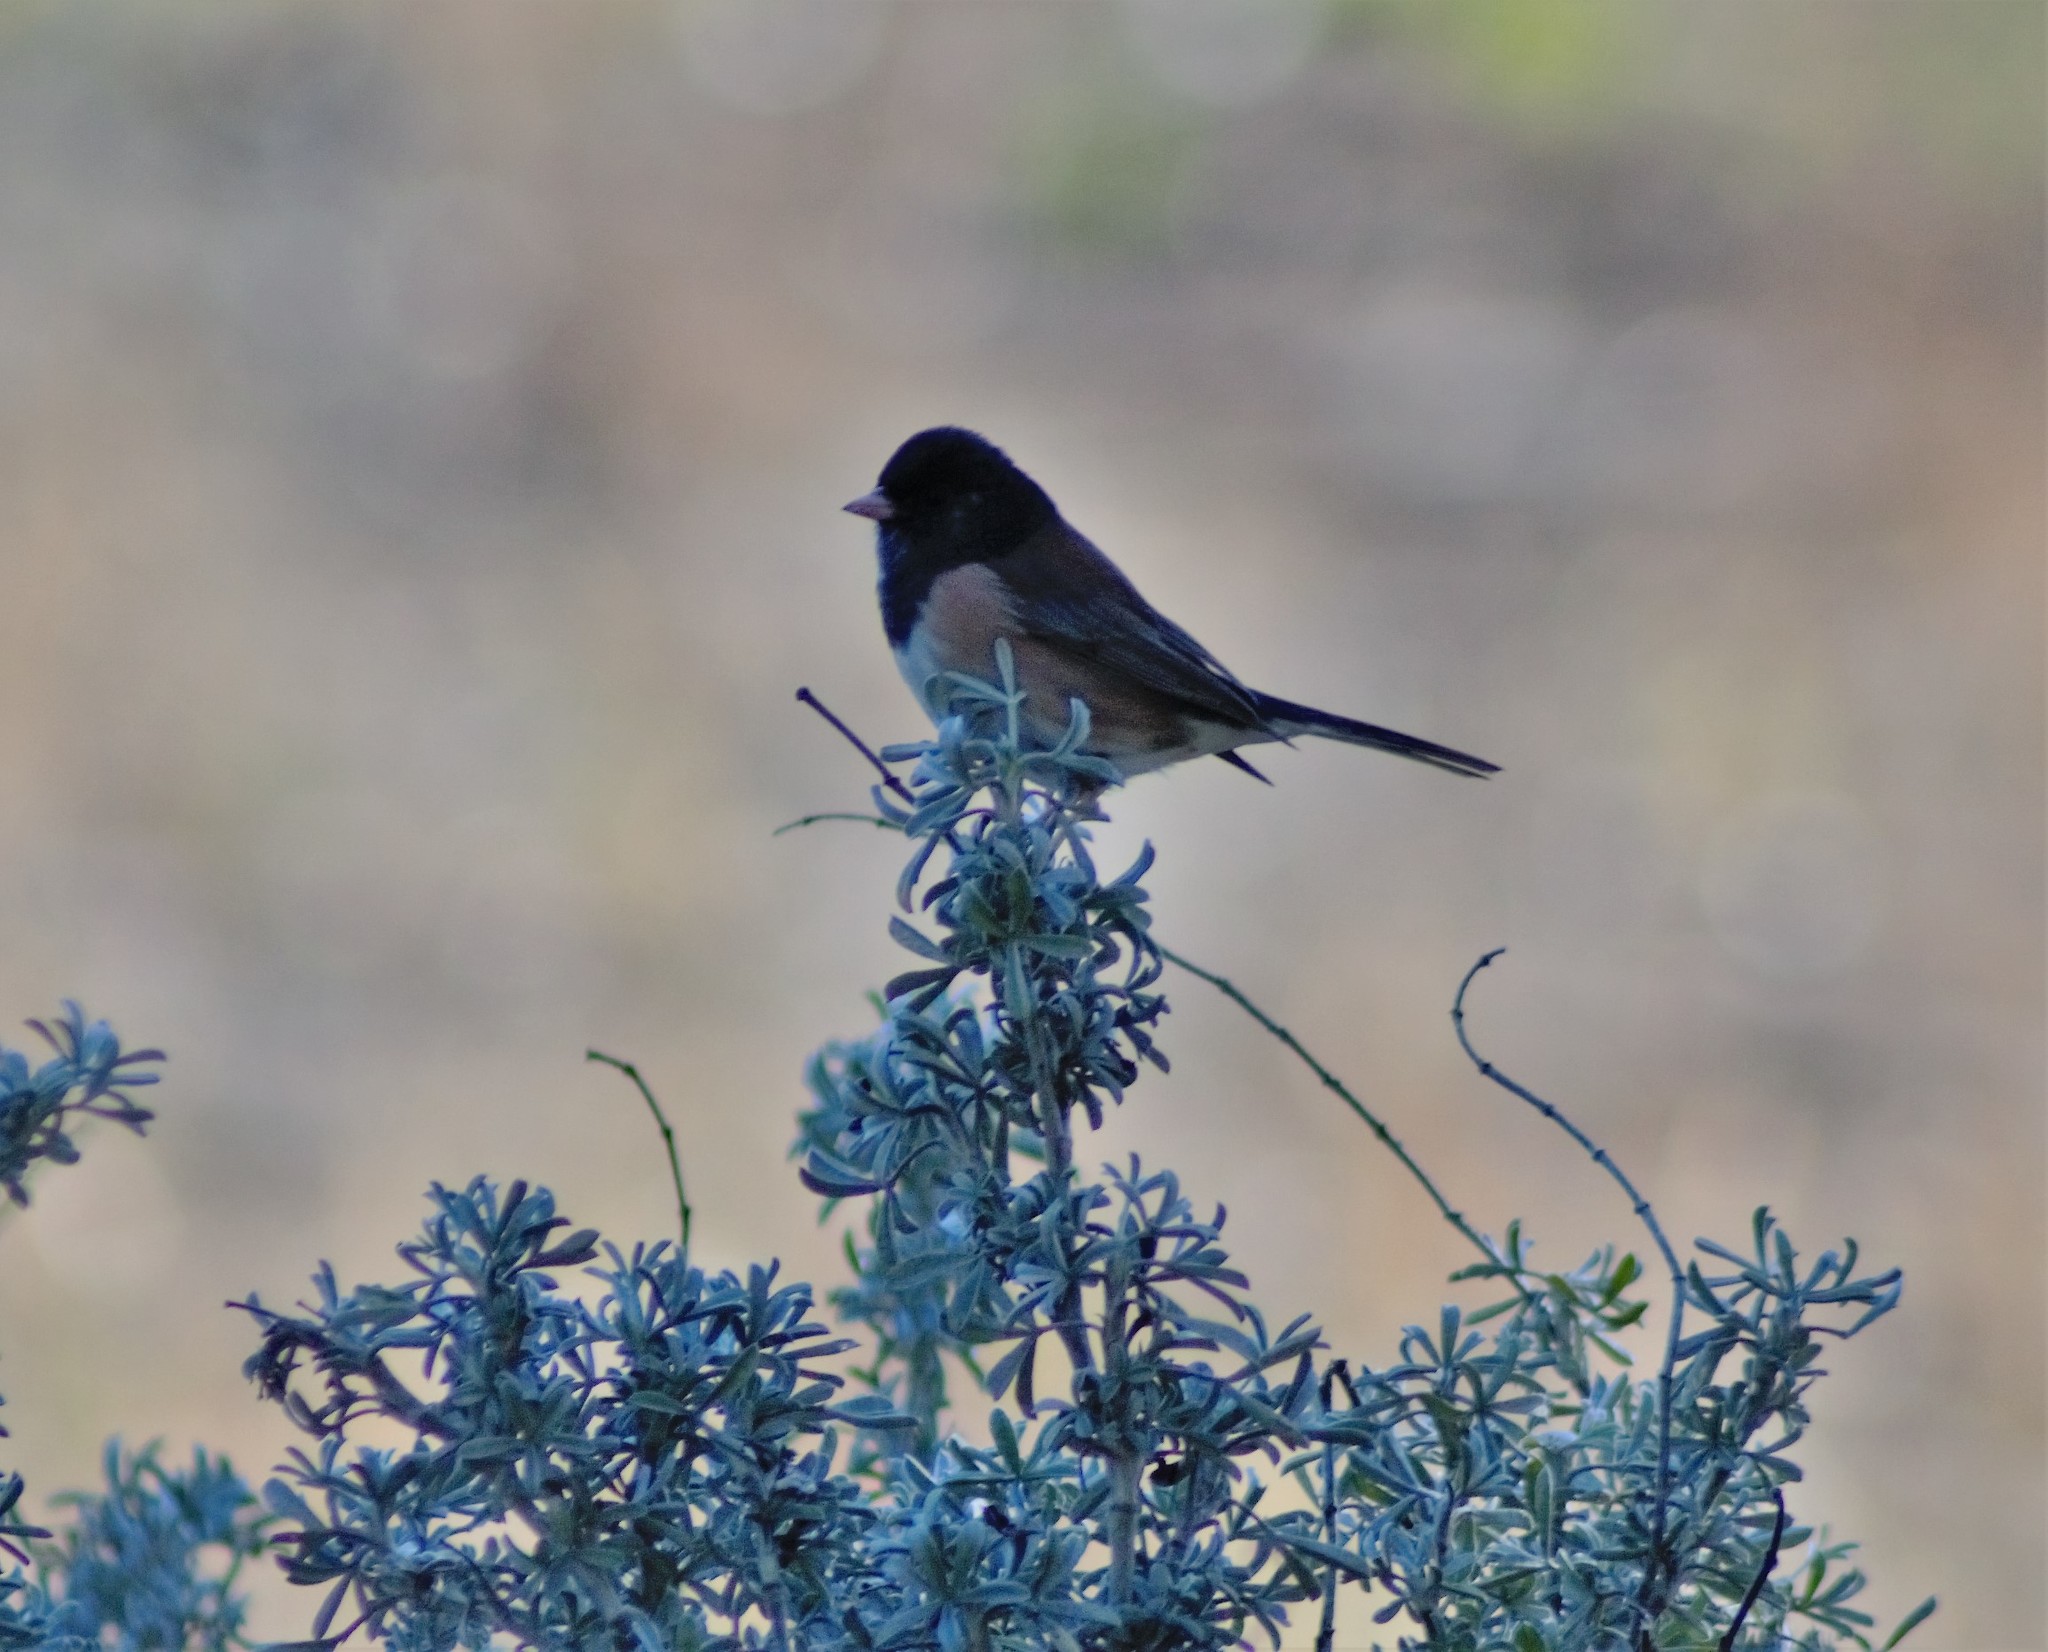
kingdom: Animalia
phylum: Chordata
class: Aves
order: Passeriformes
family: Passerellidae
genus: Junco
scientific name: Junco hyemalis
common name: Dark-eyed junco
